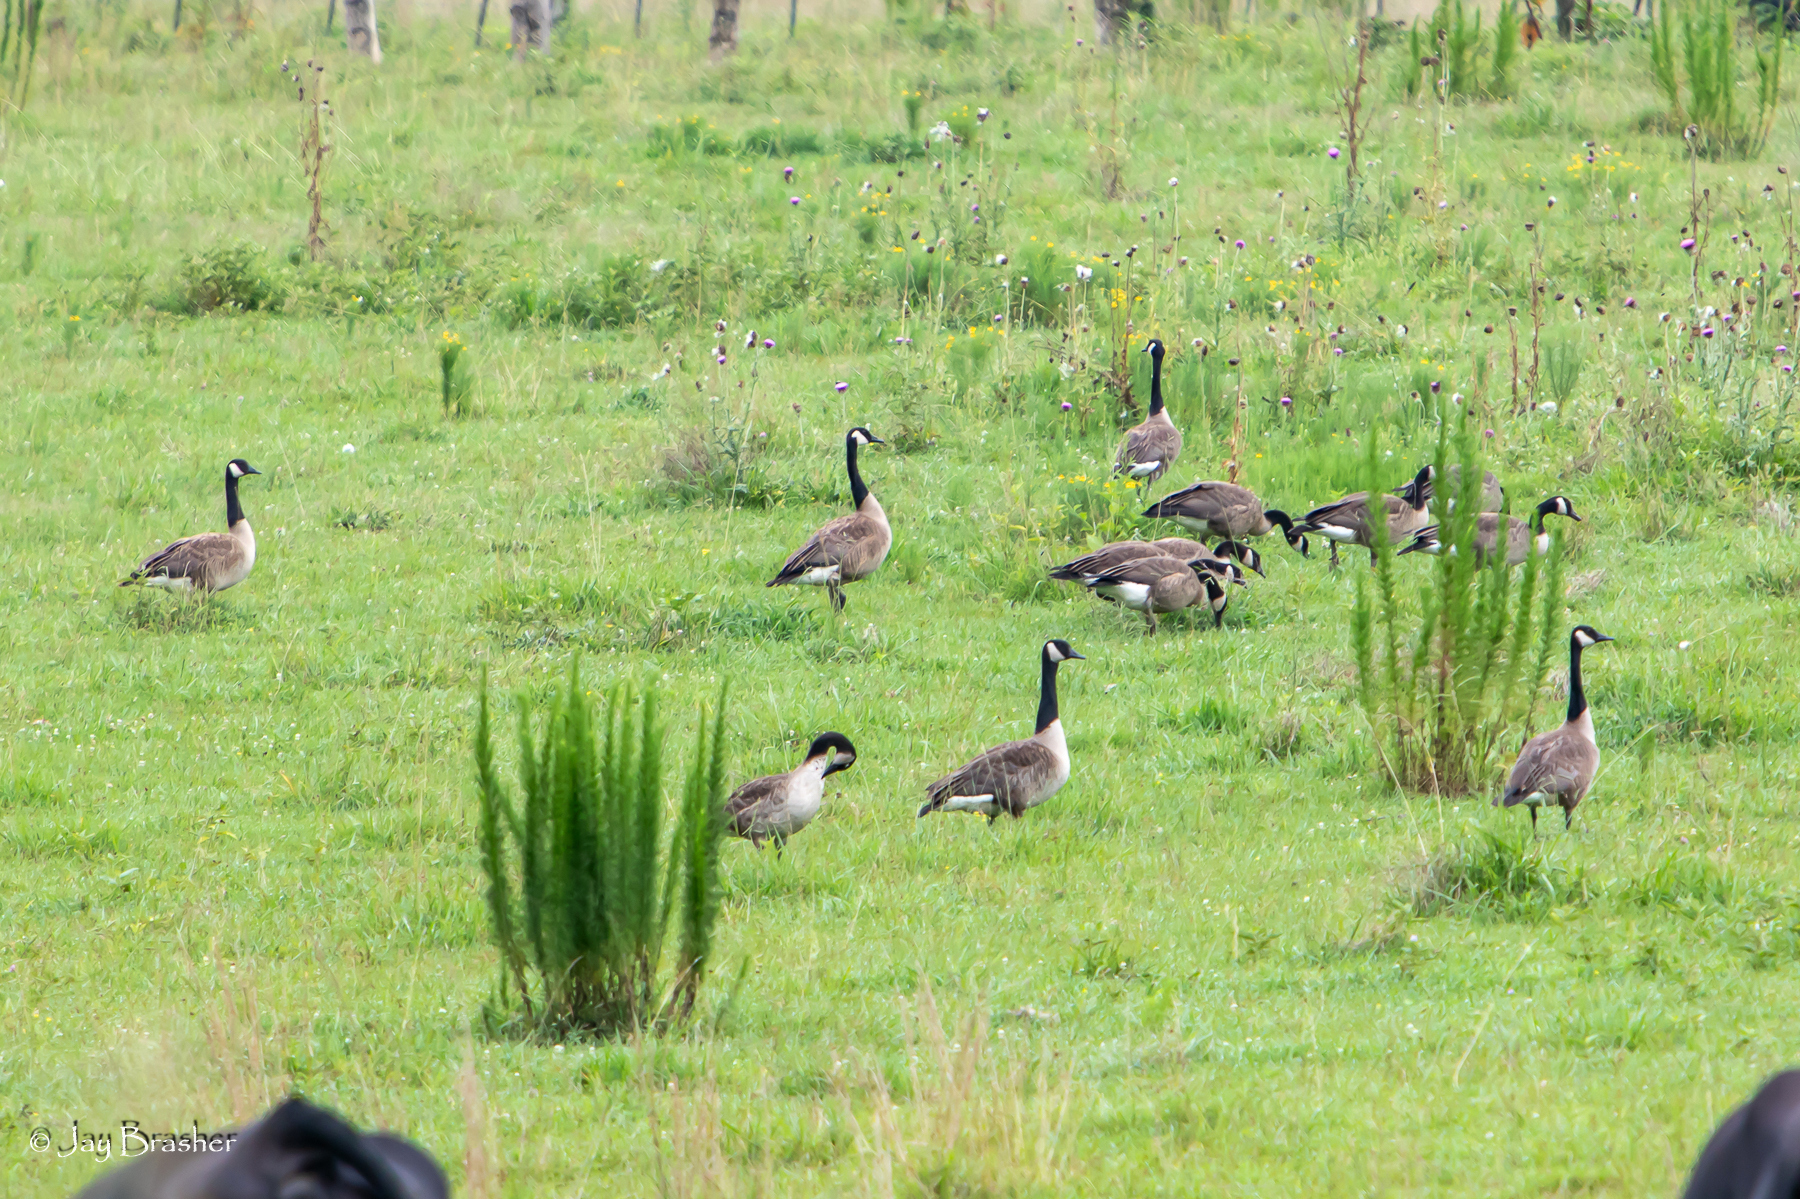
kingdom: Animalia
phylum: Chordata
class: Aves
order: Anseriformes
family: Anatidae
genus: Branta
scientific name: Branta canadensis
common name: Canada goose
